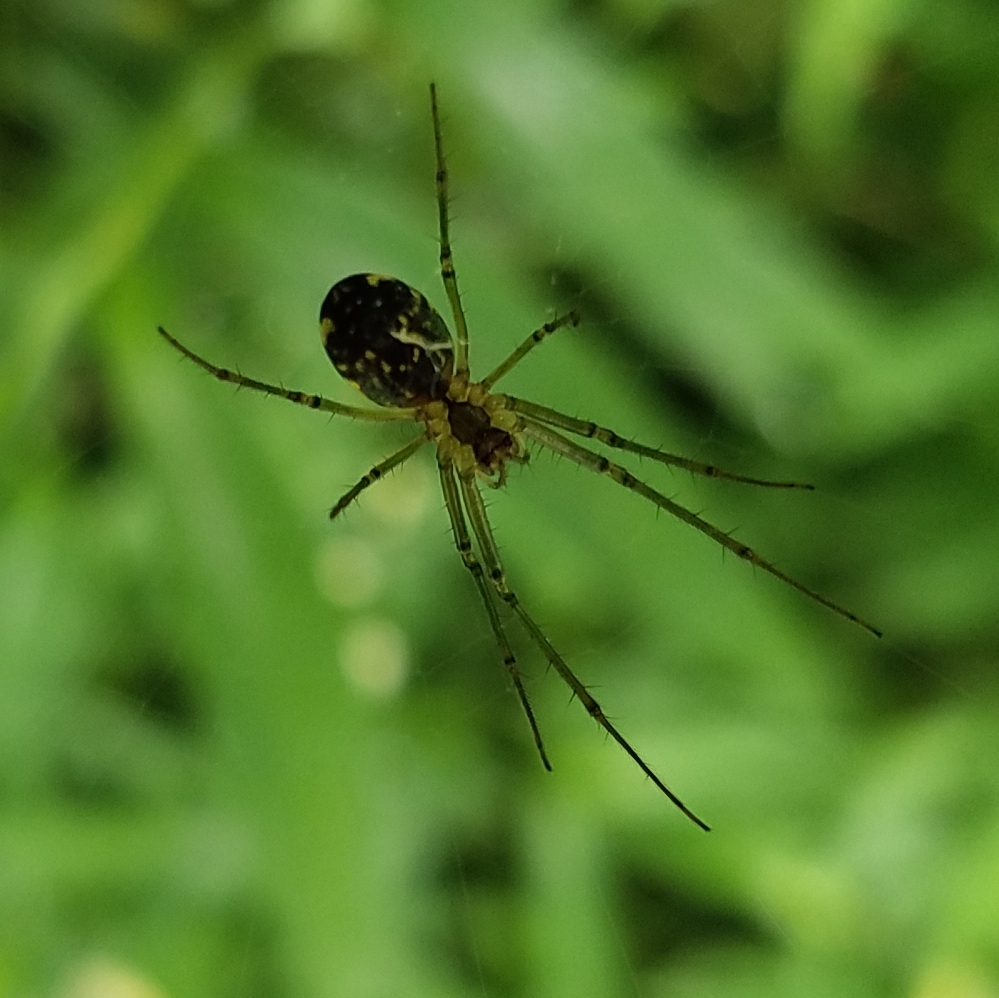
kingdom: Animalia
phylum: Arthropoda
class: Arachnida
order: Araneae
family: Tetragnathidae
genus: Leucauge
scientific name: Leucauge venusta
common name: Longjawed orb weavers
